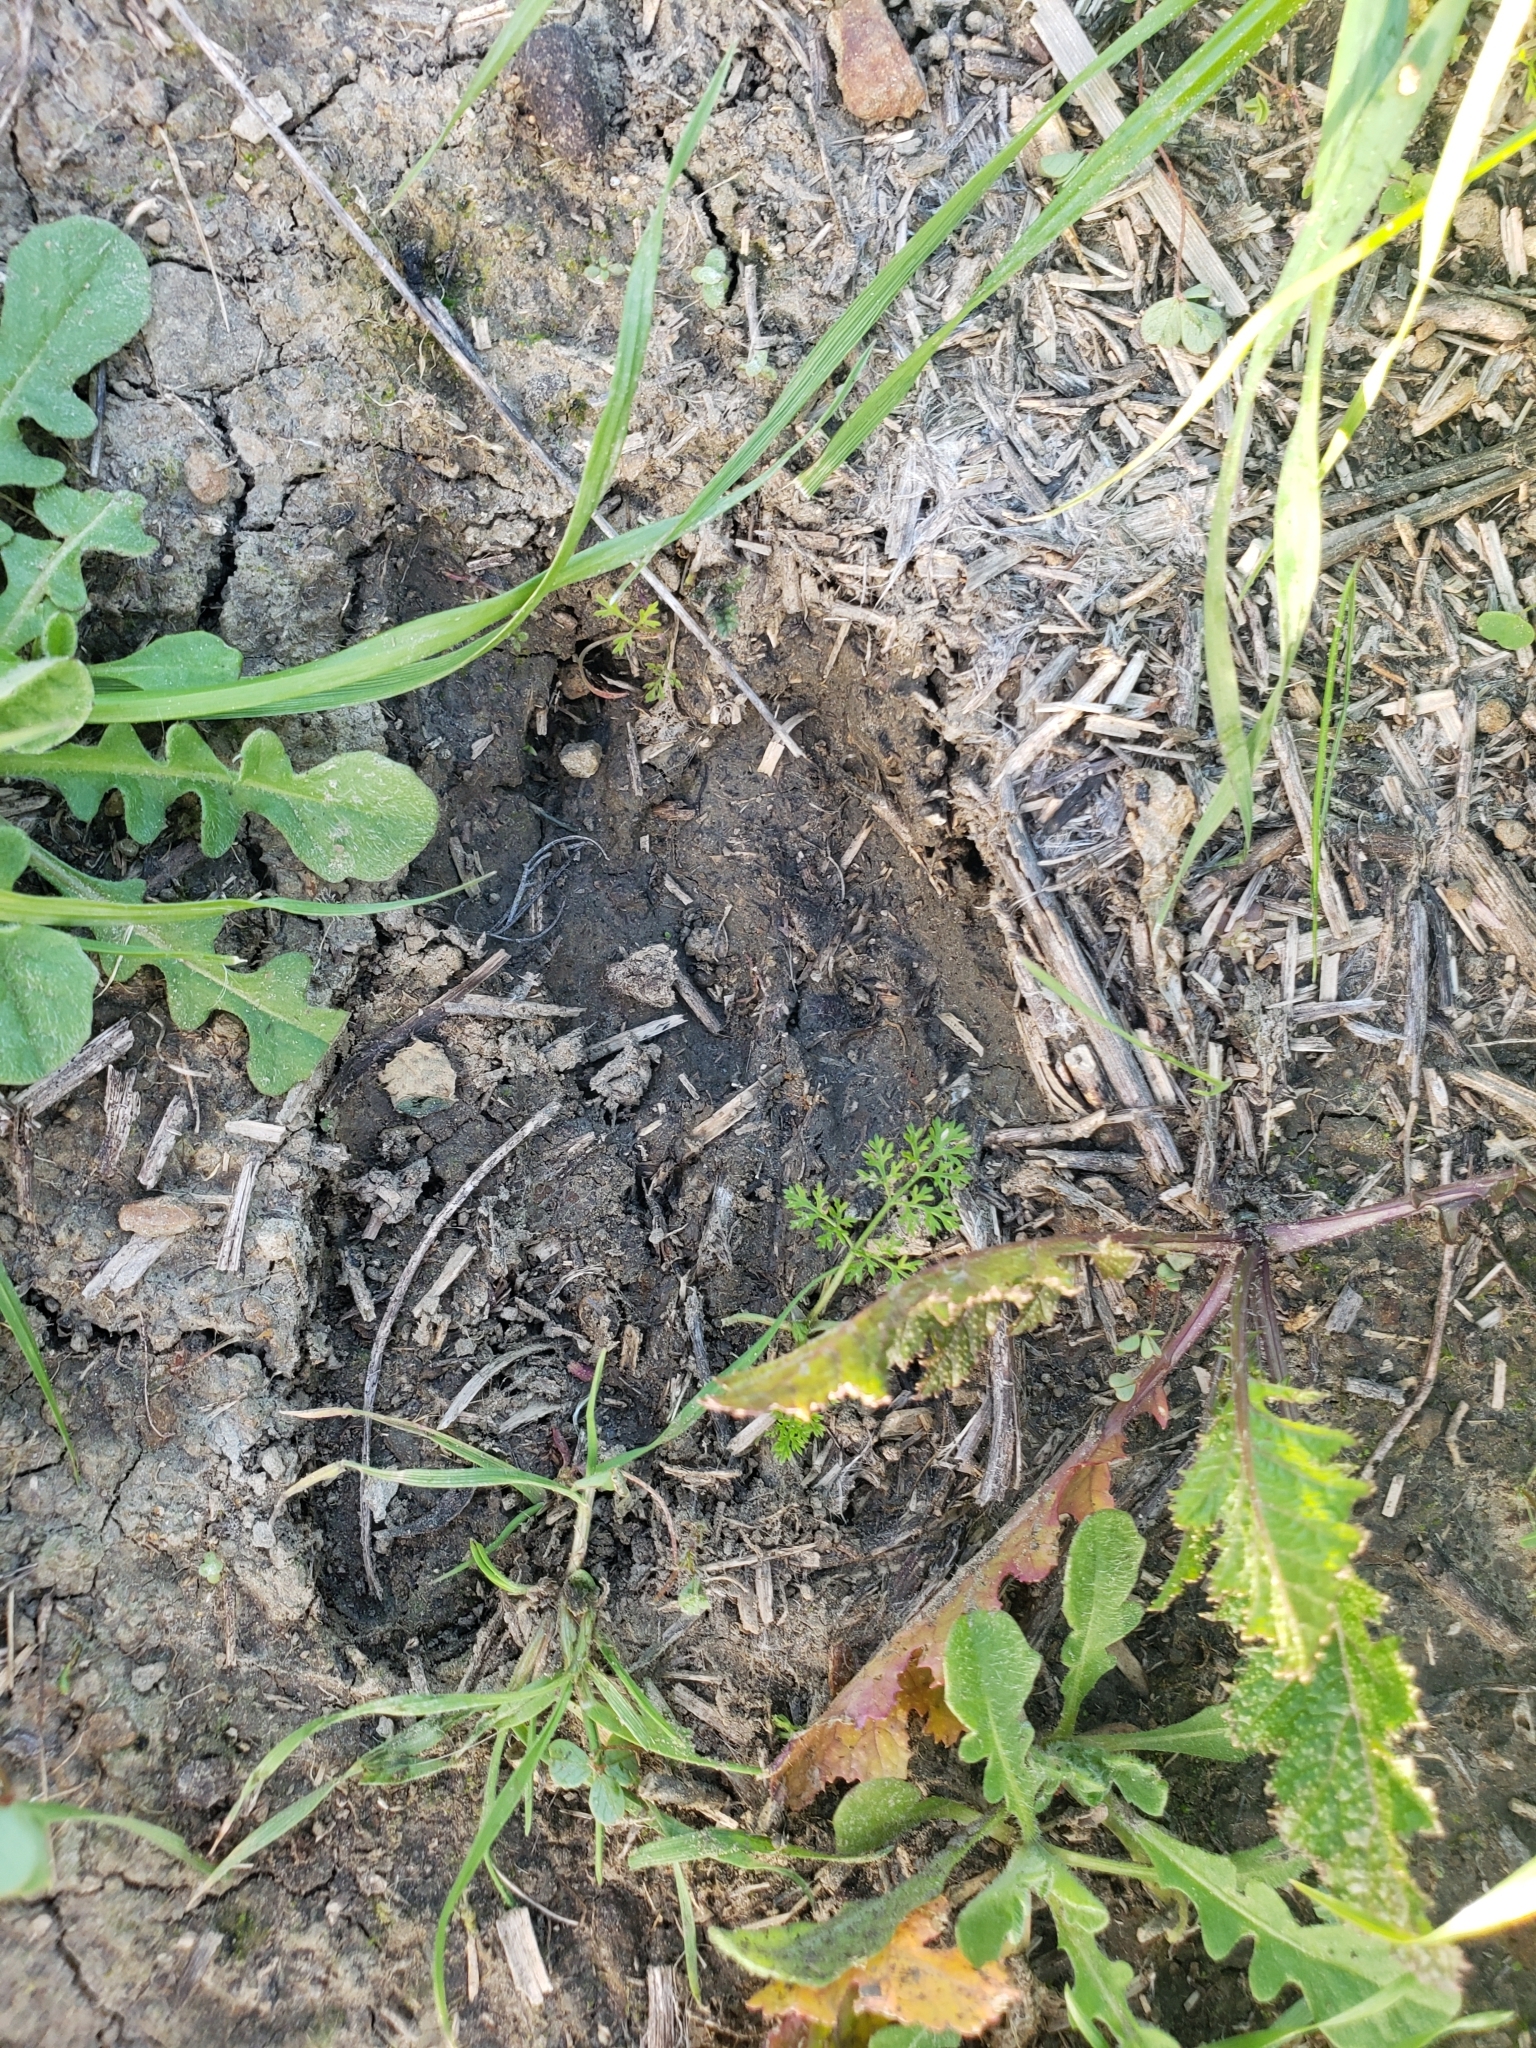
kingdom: Animalia
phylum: Chordata
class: Mammalia
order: Artiodactyla
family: Cervidae
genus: Odocoileus
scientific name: Odocoileus hemionus
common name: Mule deer
